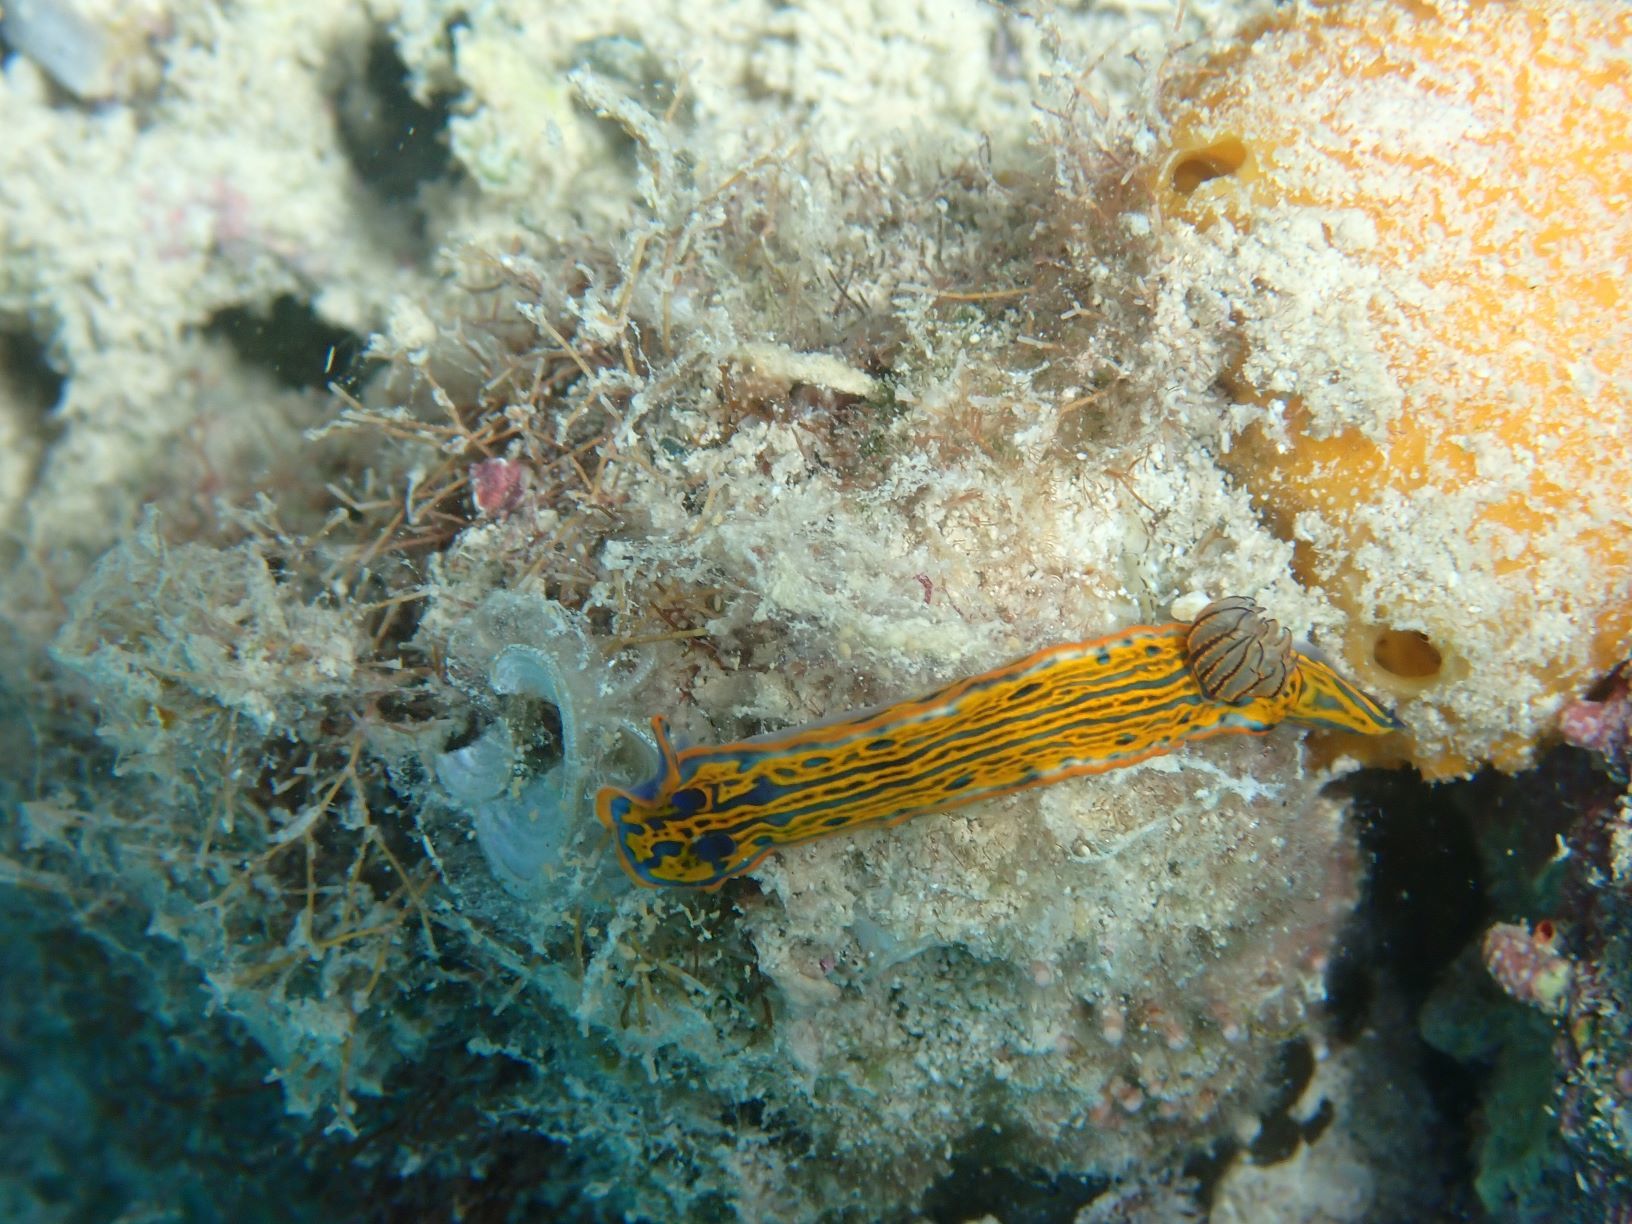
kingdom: Animalia
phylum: Mollusca
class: Gastropoda
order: Nudibranchia
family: Chromodorididae
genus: Felimare
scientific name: Felimare zebra
